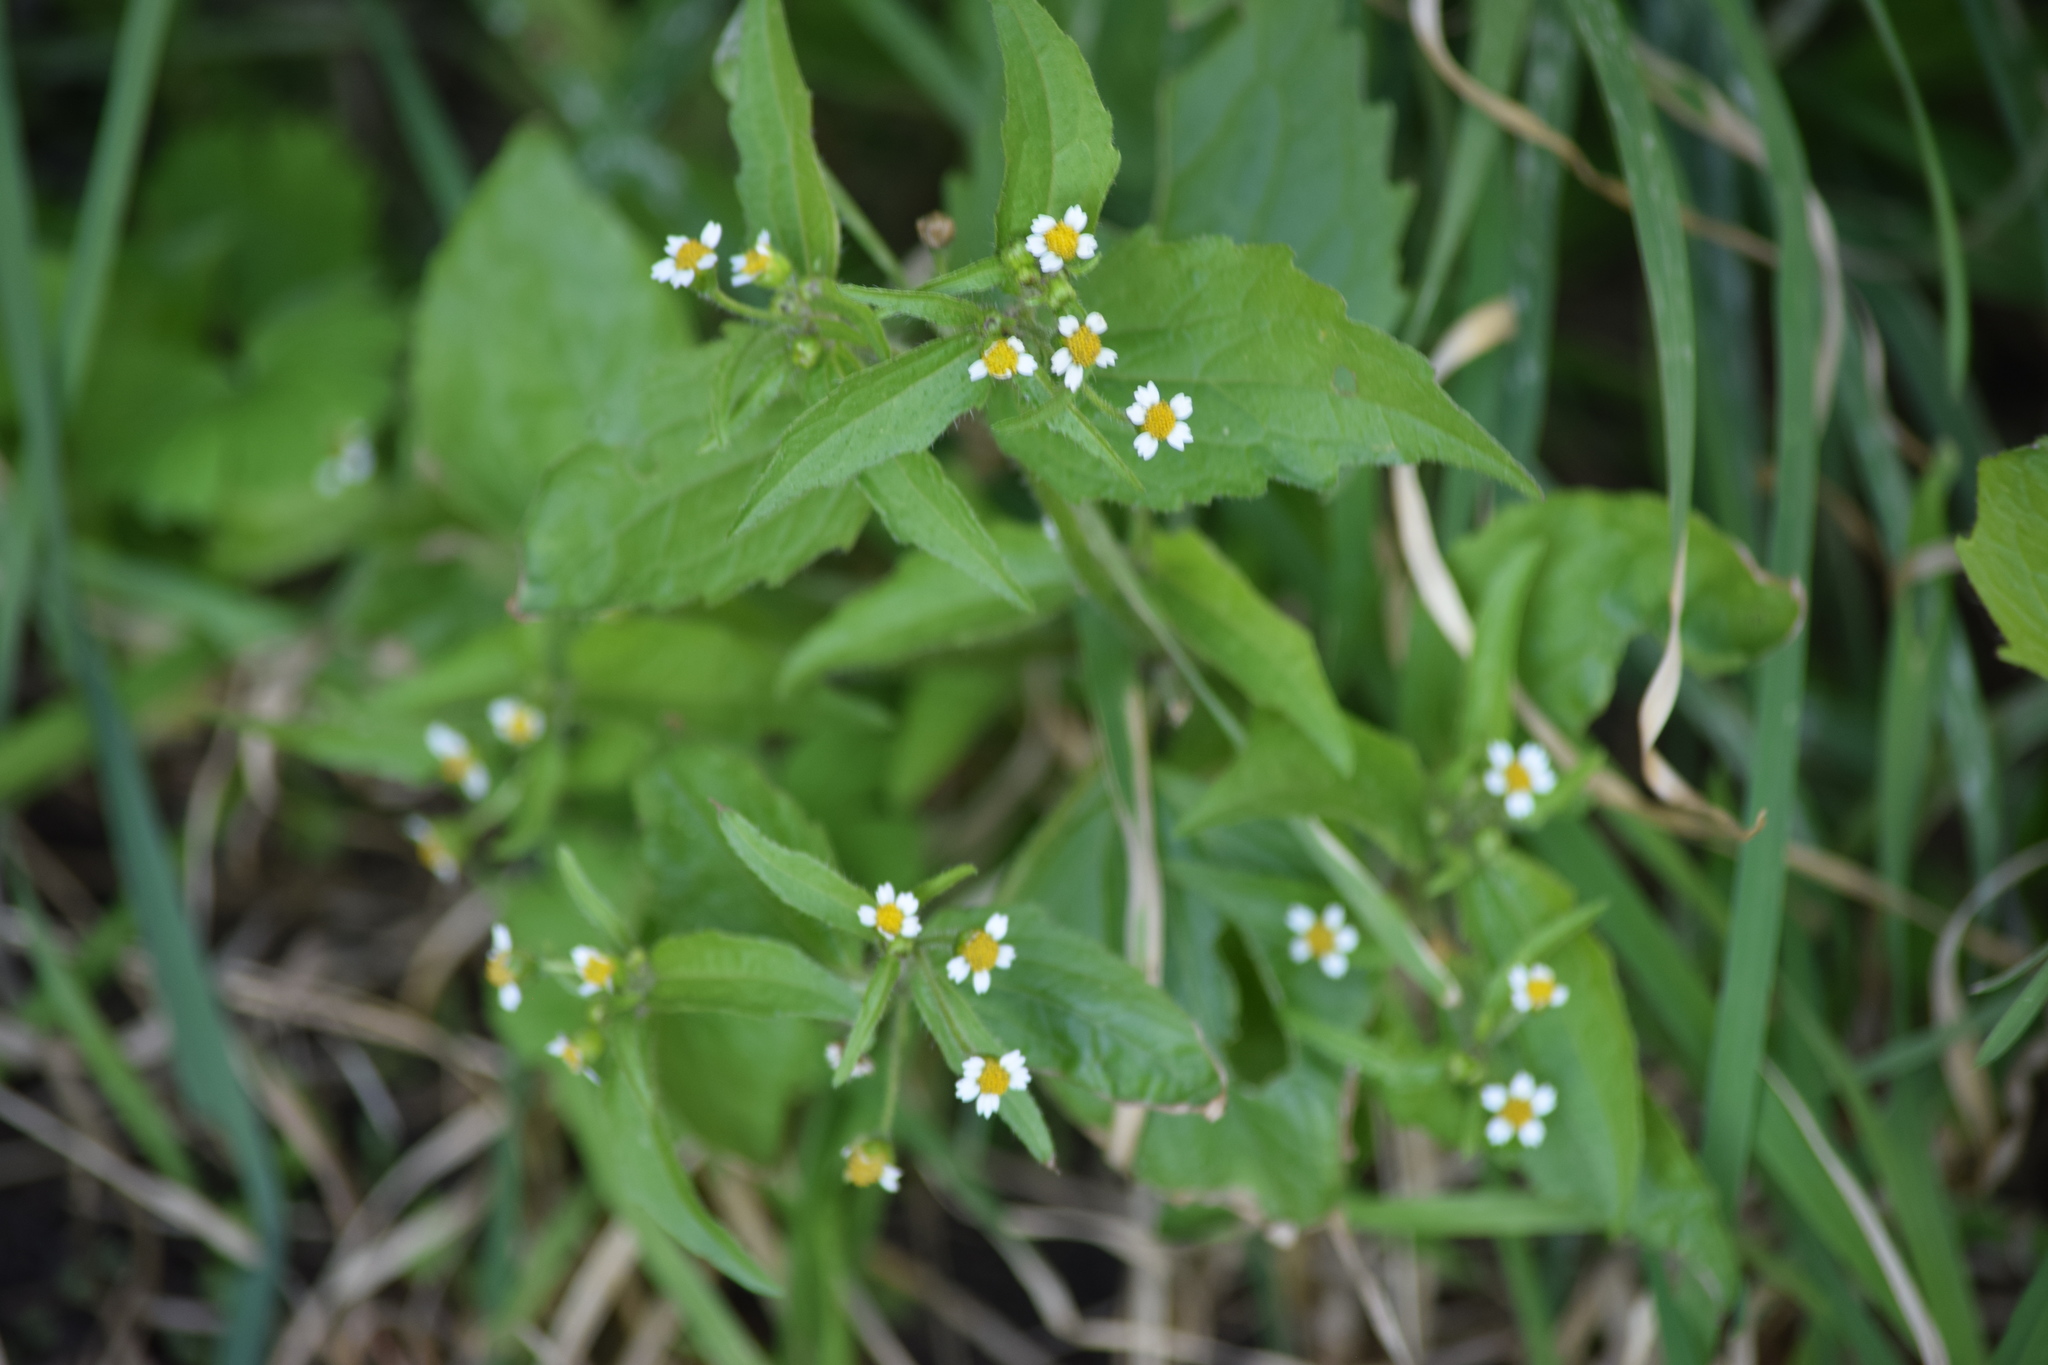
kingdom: Plantae
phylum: Tracheophyta
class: Magnoliopsida
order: Asterales
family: Asteraceae
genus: Galinsoga
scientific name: Galinsoga quadriradiata
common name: Shaggy soldier
